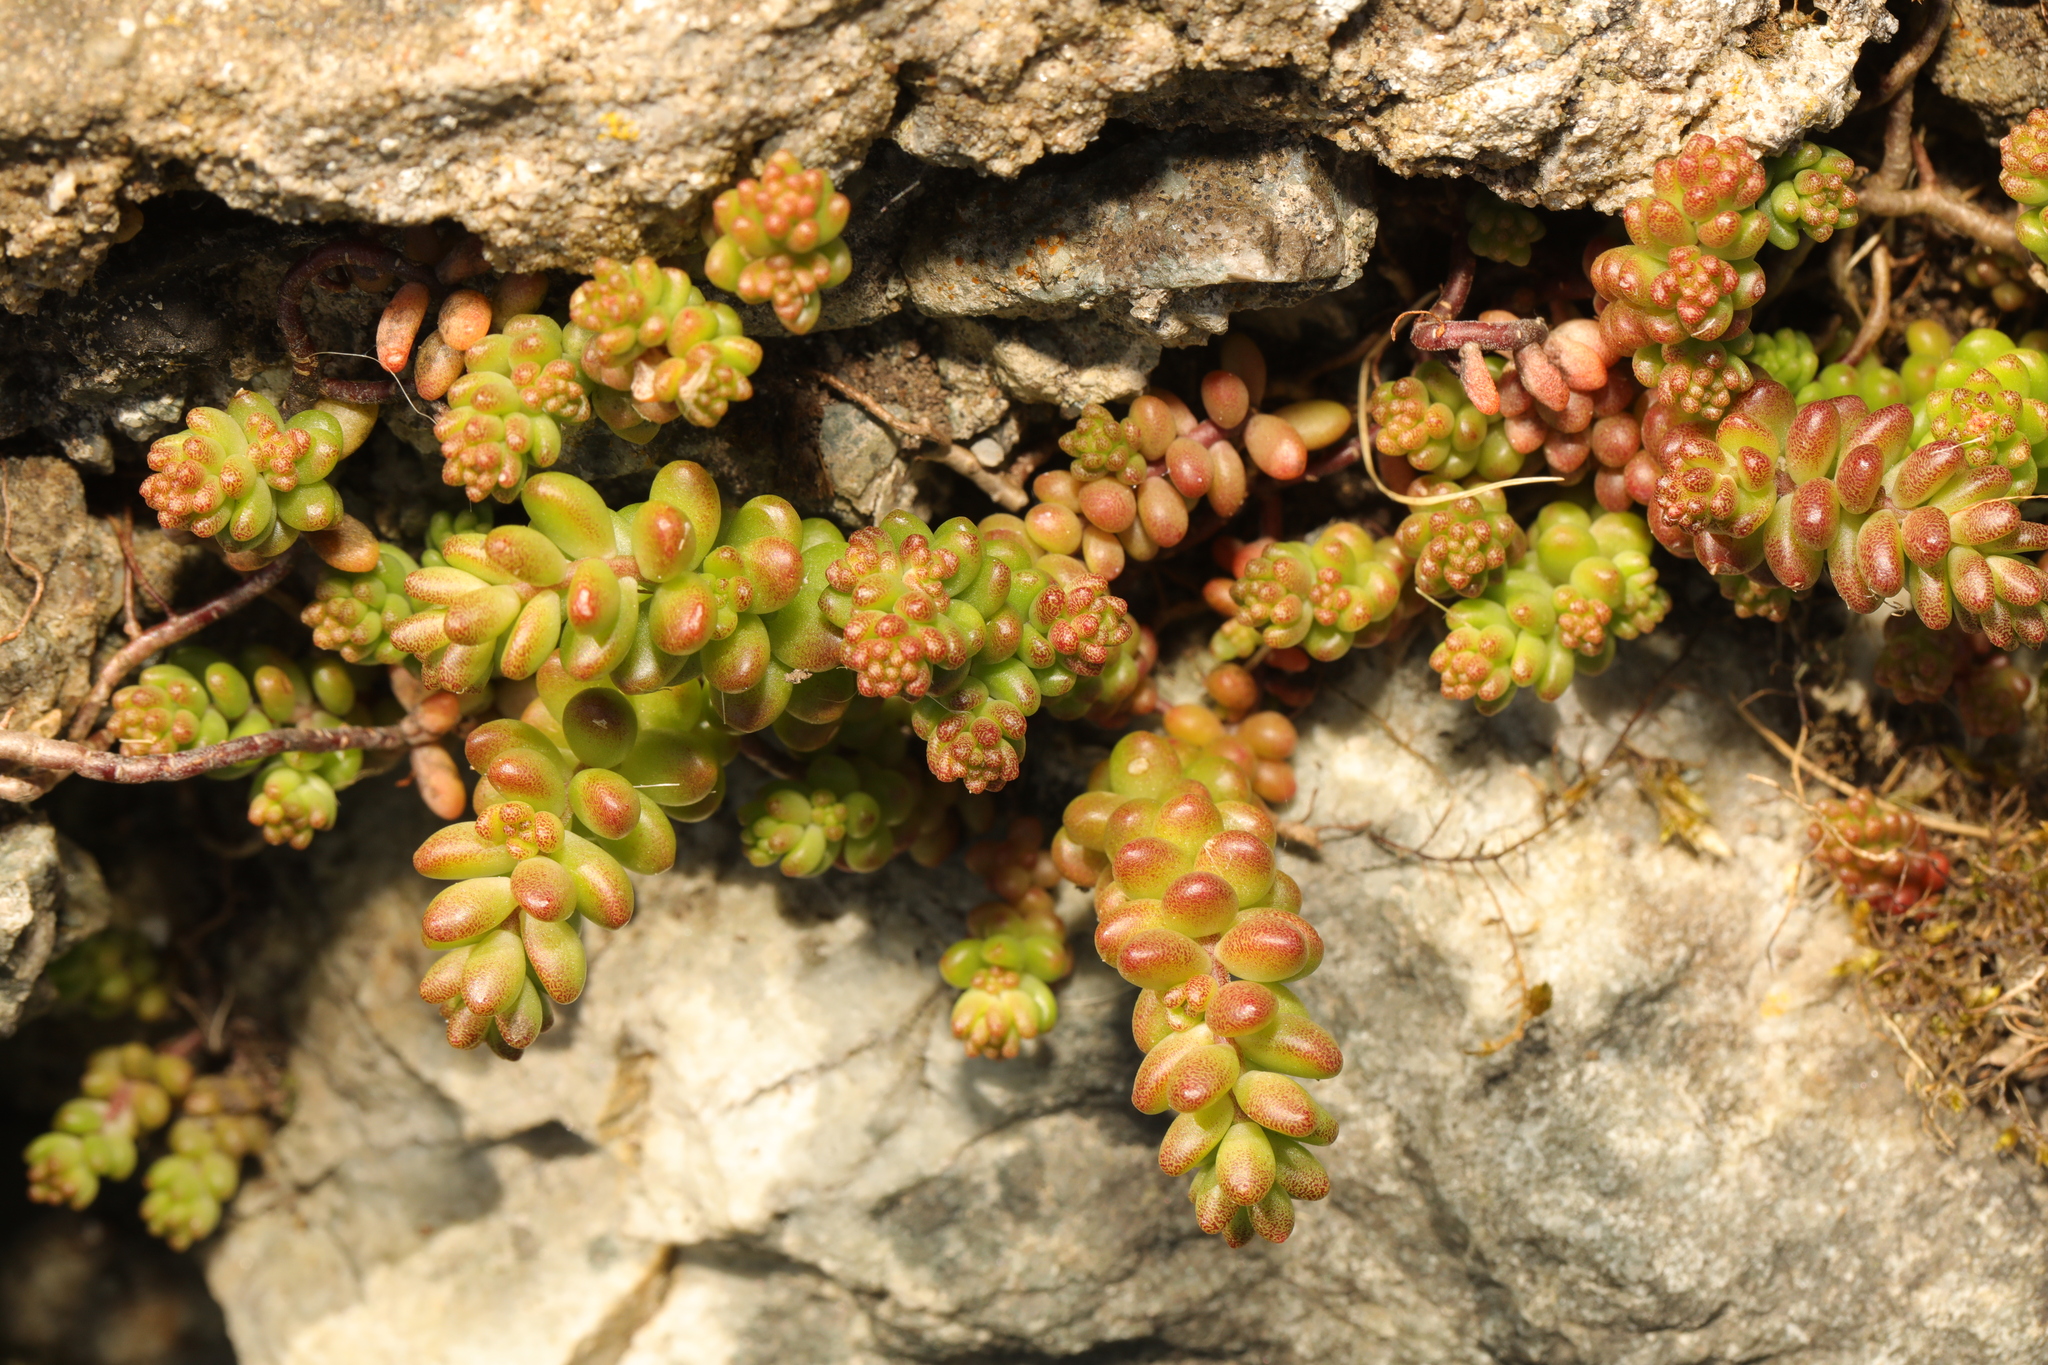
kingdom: Plantae
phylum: Tracheophyta
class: Magnoliopsida
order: Saxifragales
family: Crassulaceae
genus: Sedum
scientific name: Sedum album
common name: White stonecrop
